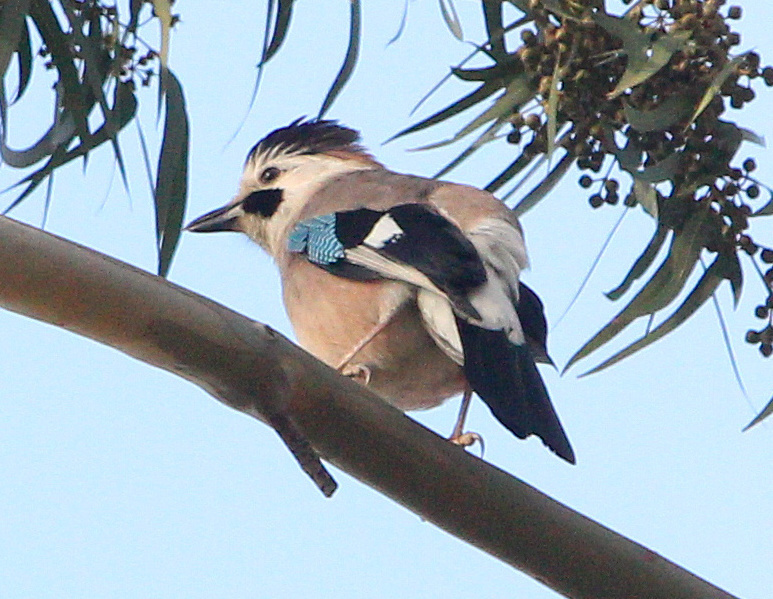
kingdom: Animalia
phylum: Chordata
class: Aves
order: Passeriformes
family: Corvidae
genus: Garrulus
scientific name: Garrulus glandarius
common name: Eurasian jay
